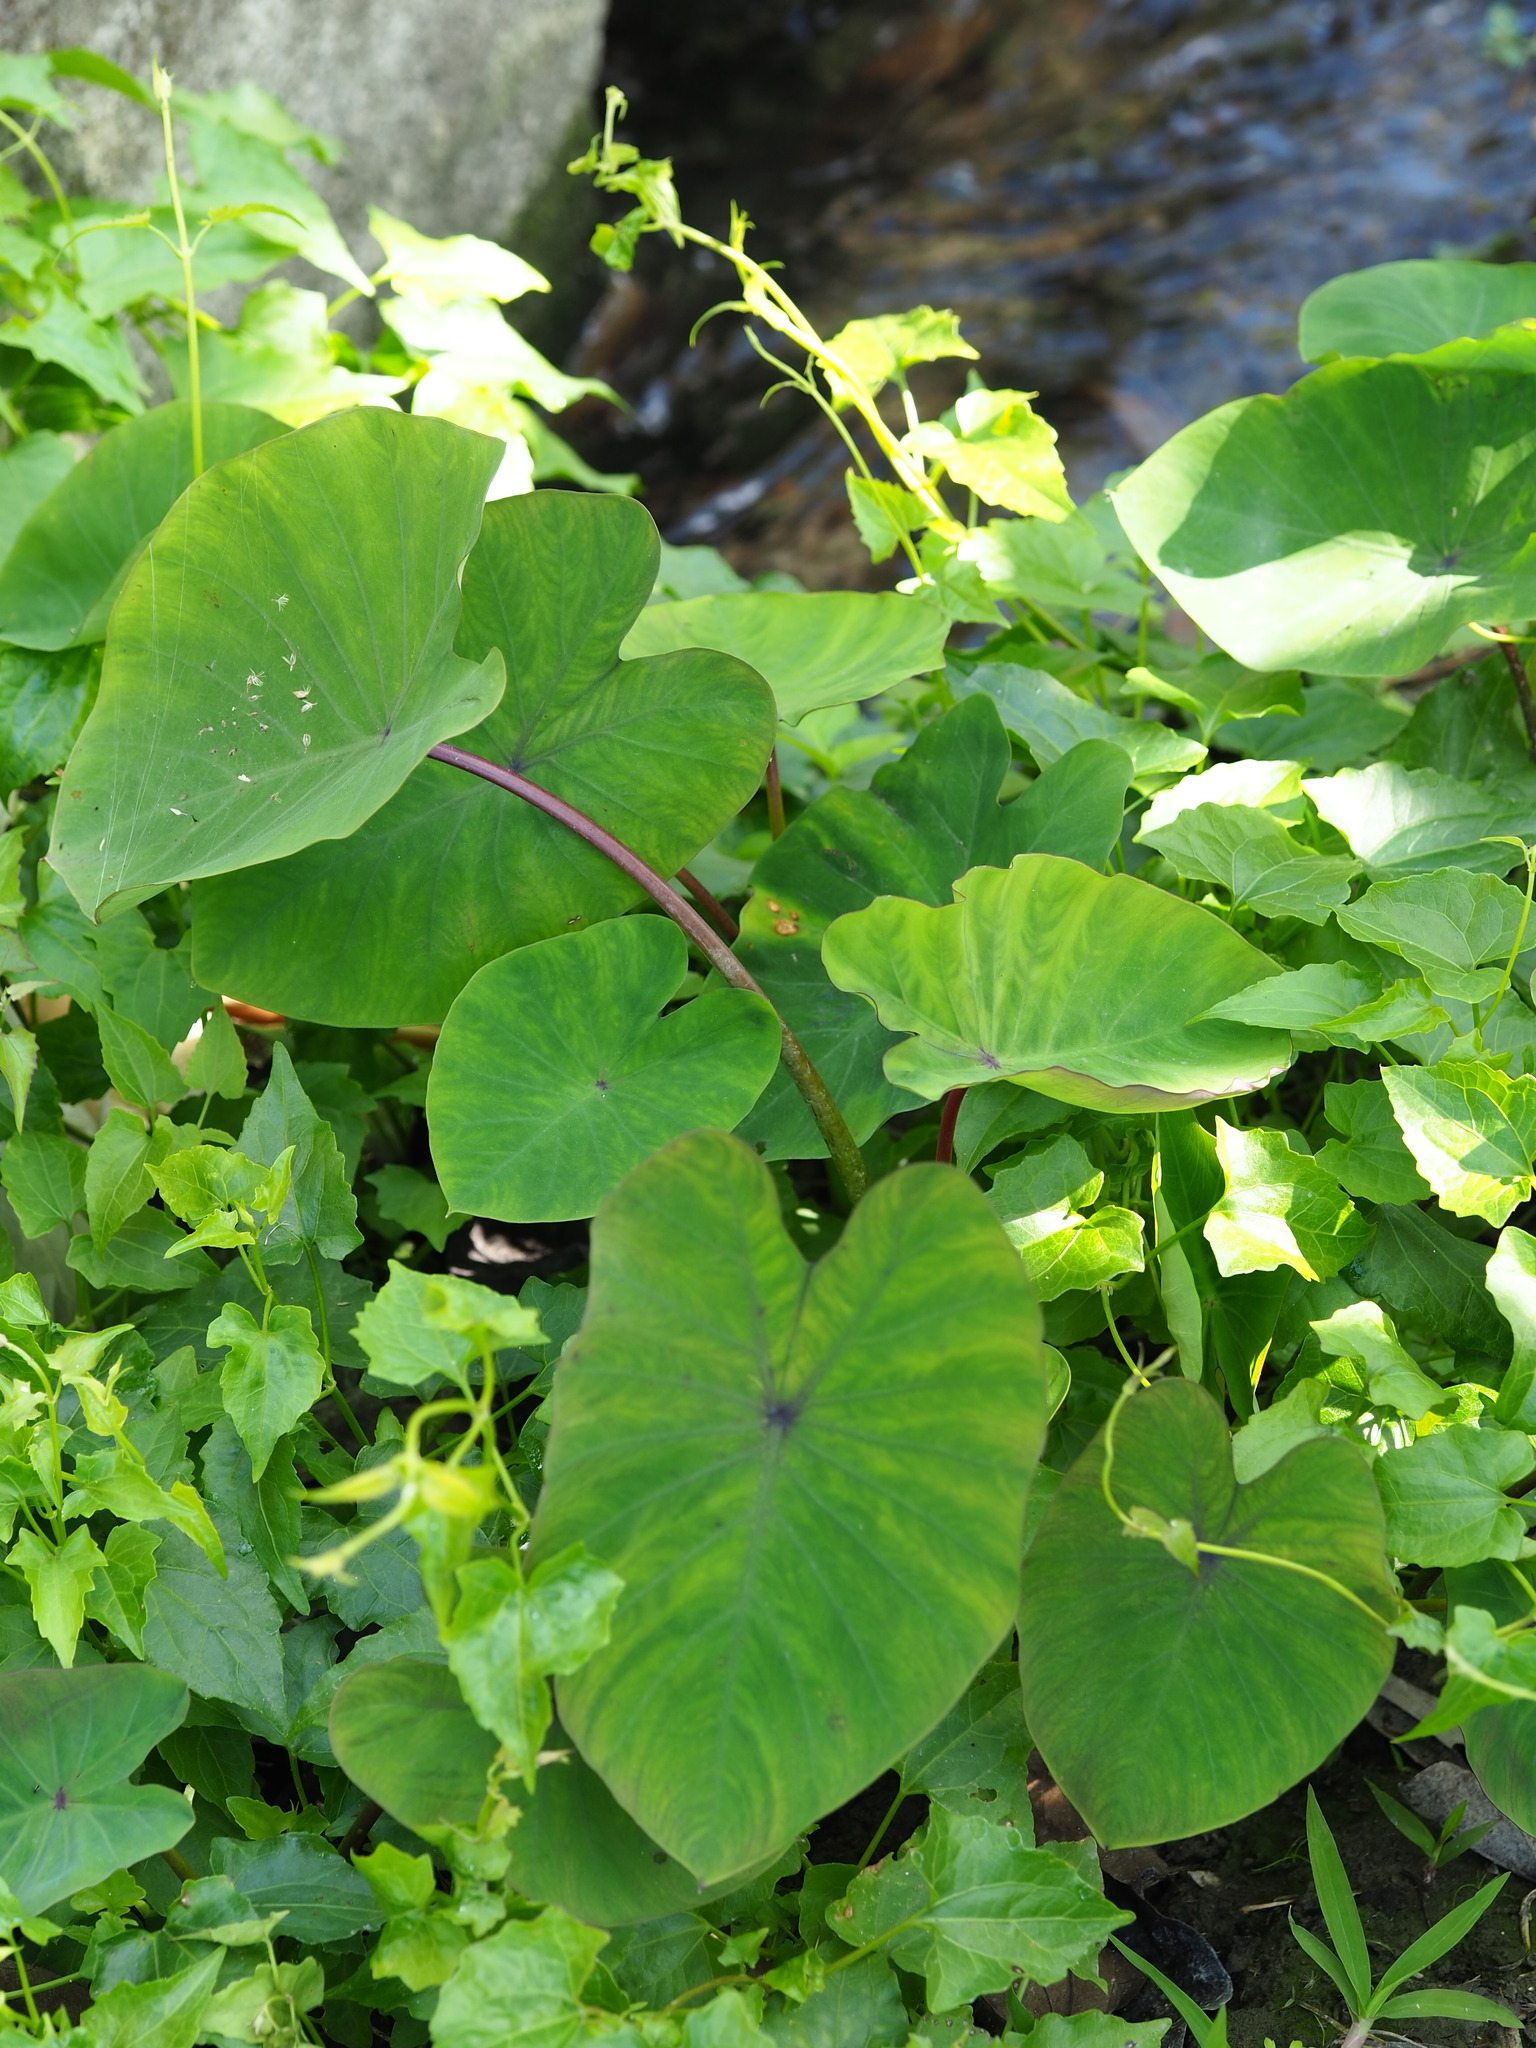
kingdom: Plantae
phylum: Tracheophyta
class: Liliopsida
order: Alismatales
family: Araceae
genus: Colocasia
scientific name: Colocasia esculenta
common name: Taro
